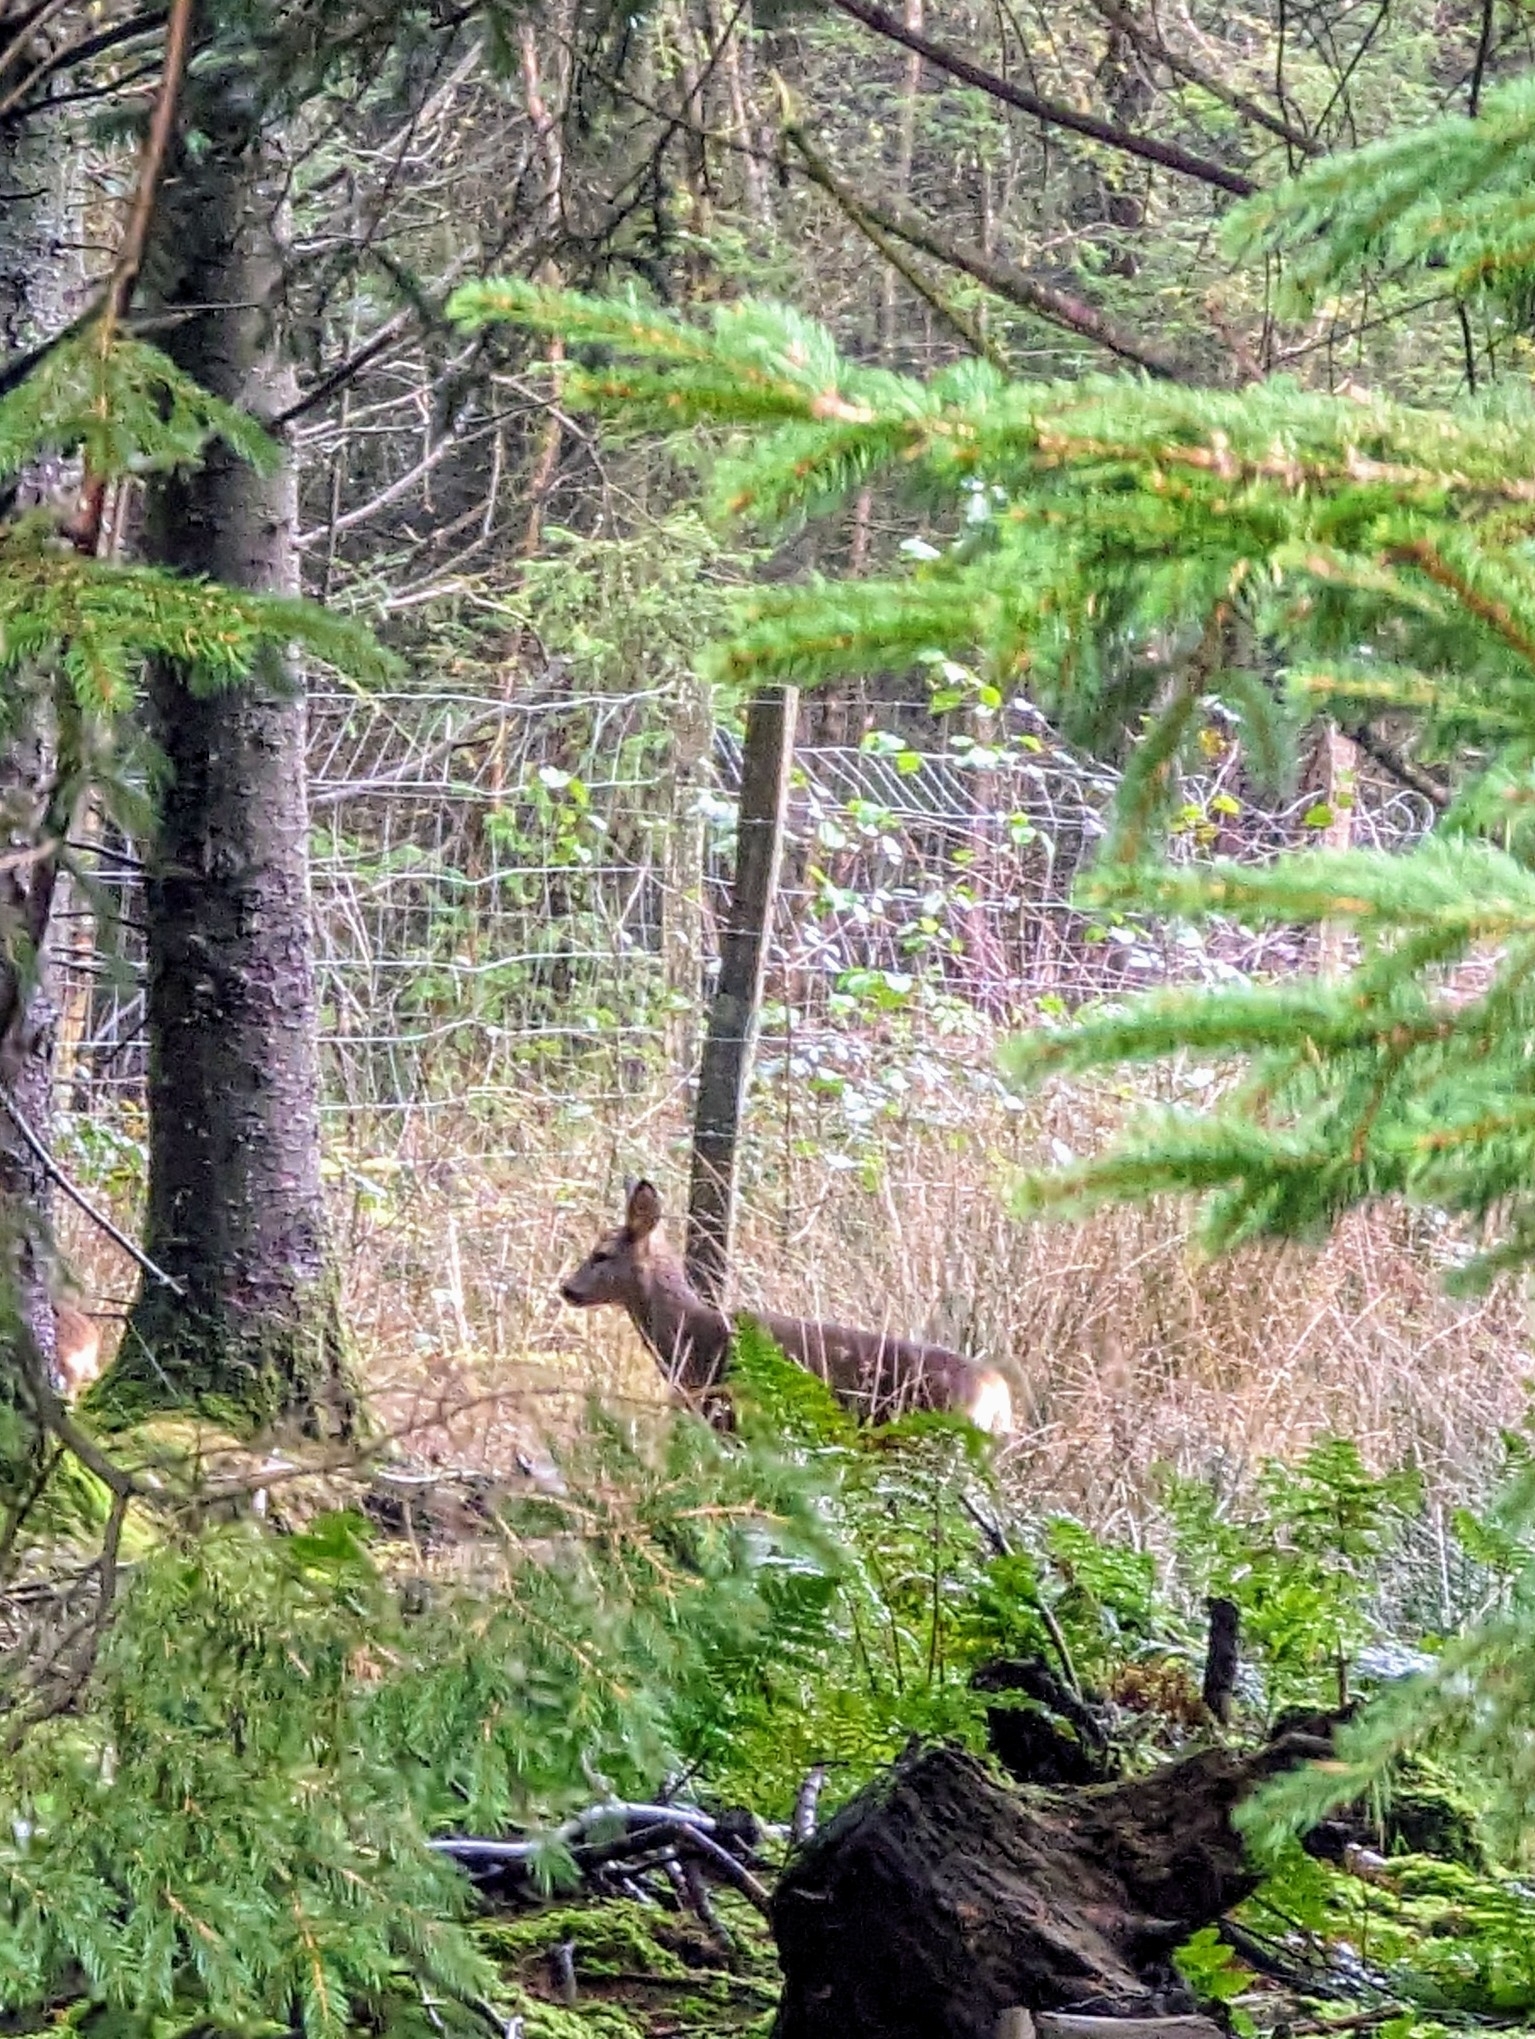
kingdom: Animalia
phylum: Chordata
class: Mammalia
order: Artiodactyla
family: Cervidae
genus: Capreolus
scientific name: Capreolus capreolus
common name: Western roe deer
